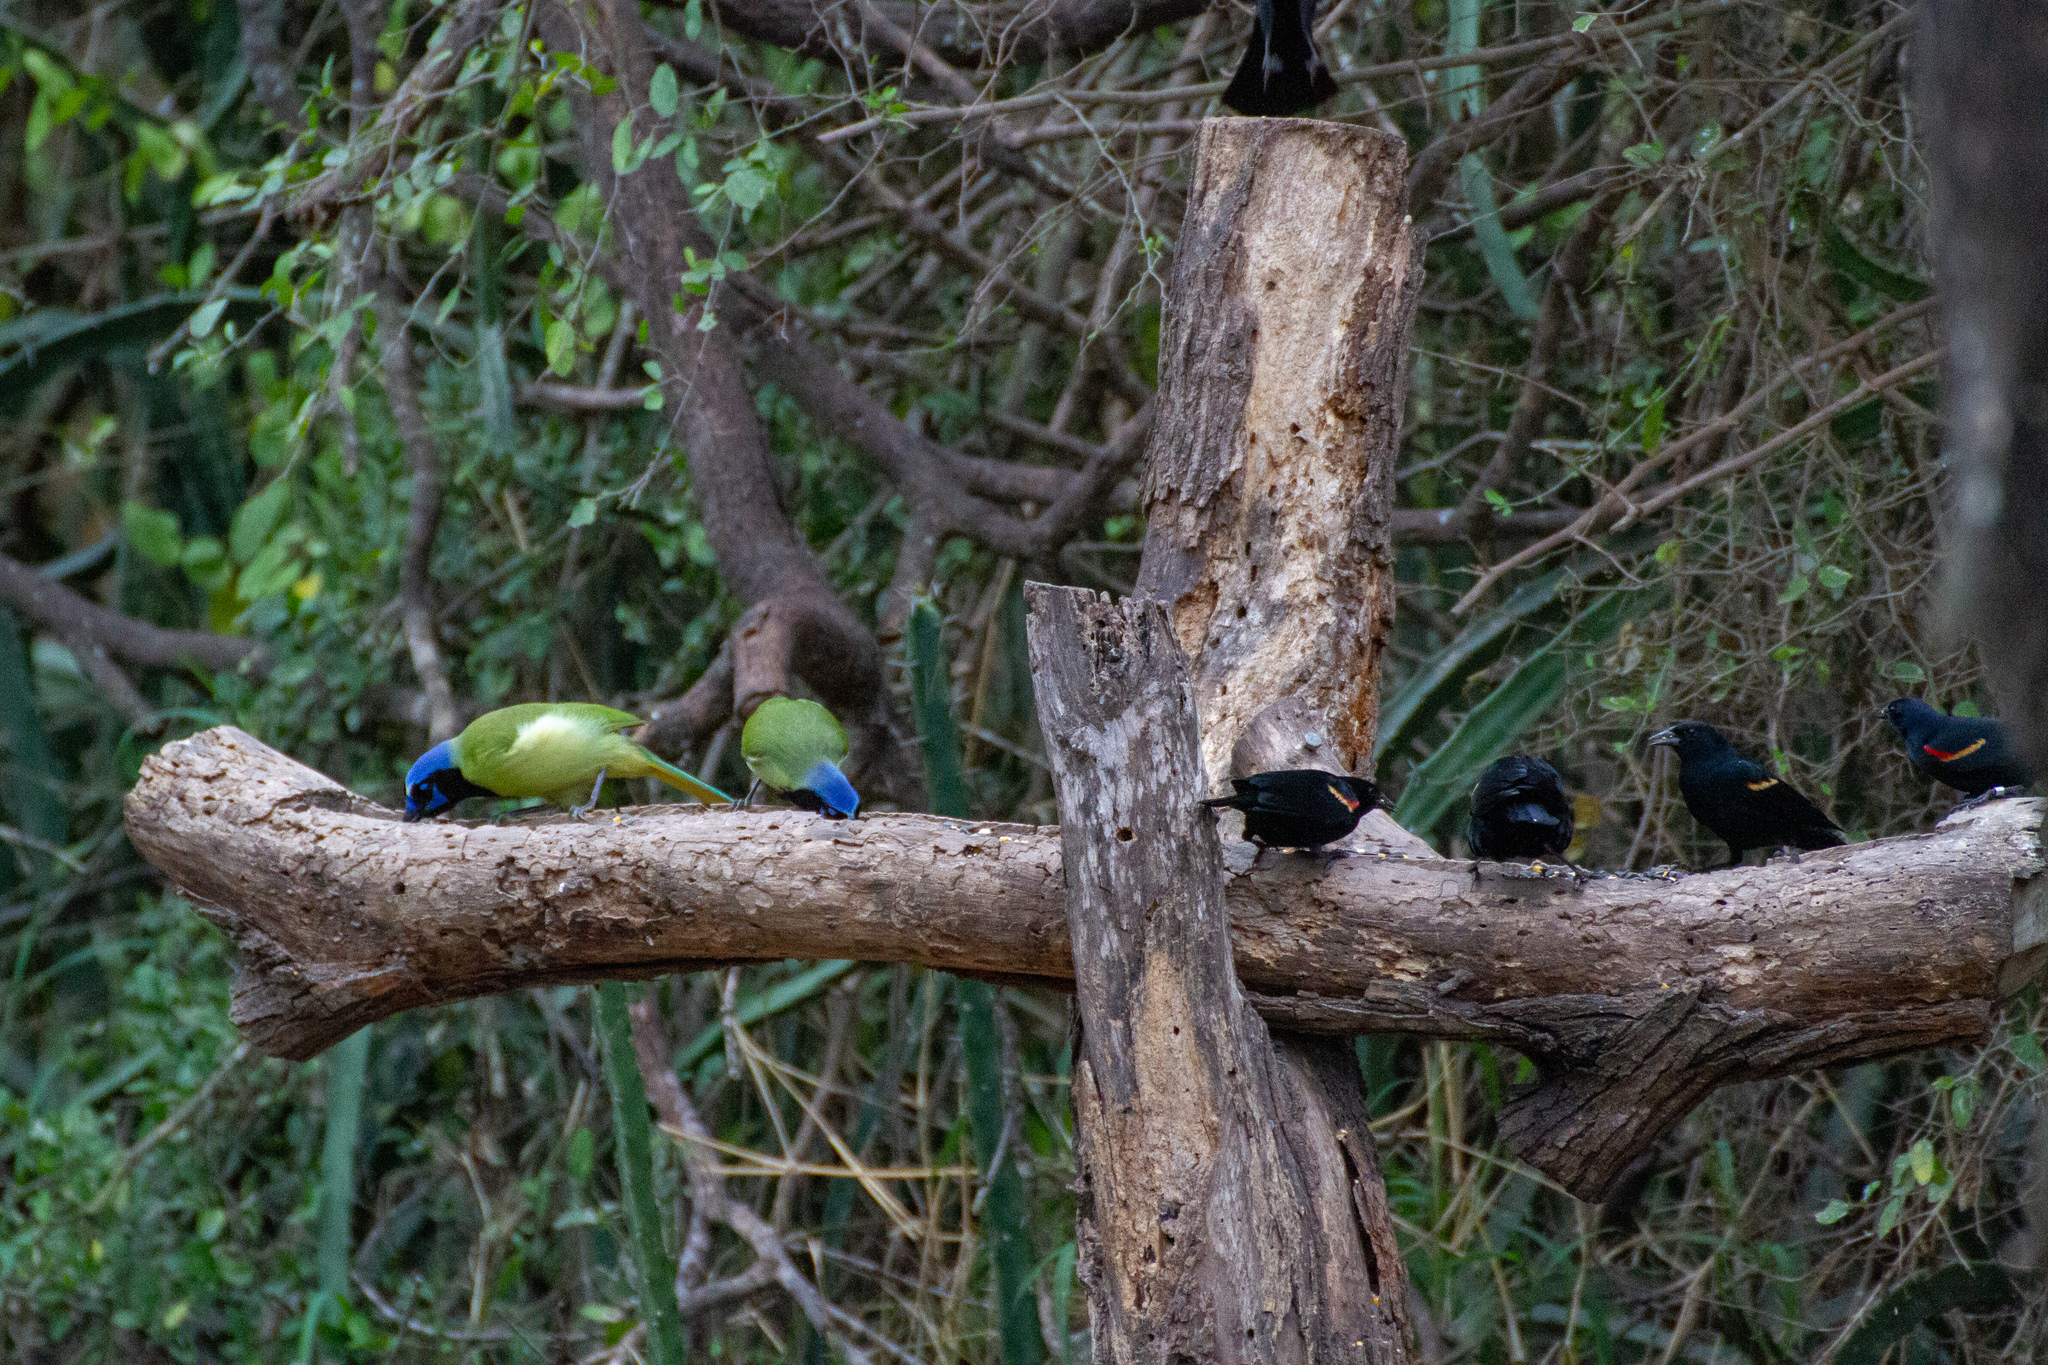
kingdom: Animalia
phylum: Chordata
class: Aves
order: Passeriformes
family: Corvidae
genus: Cyanocorax
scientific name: Cyanocorax yncas
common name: Green jay
